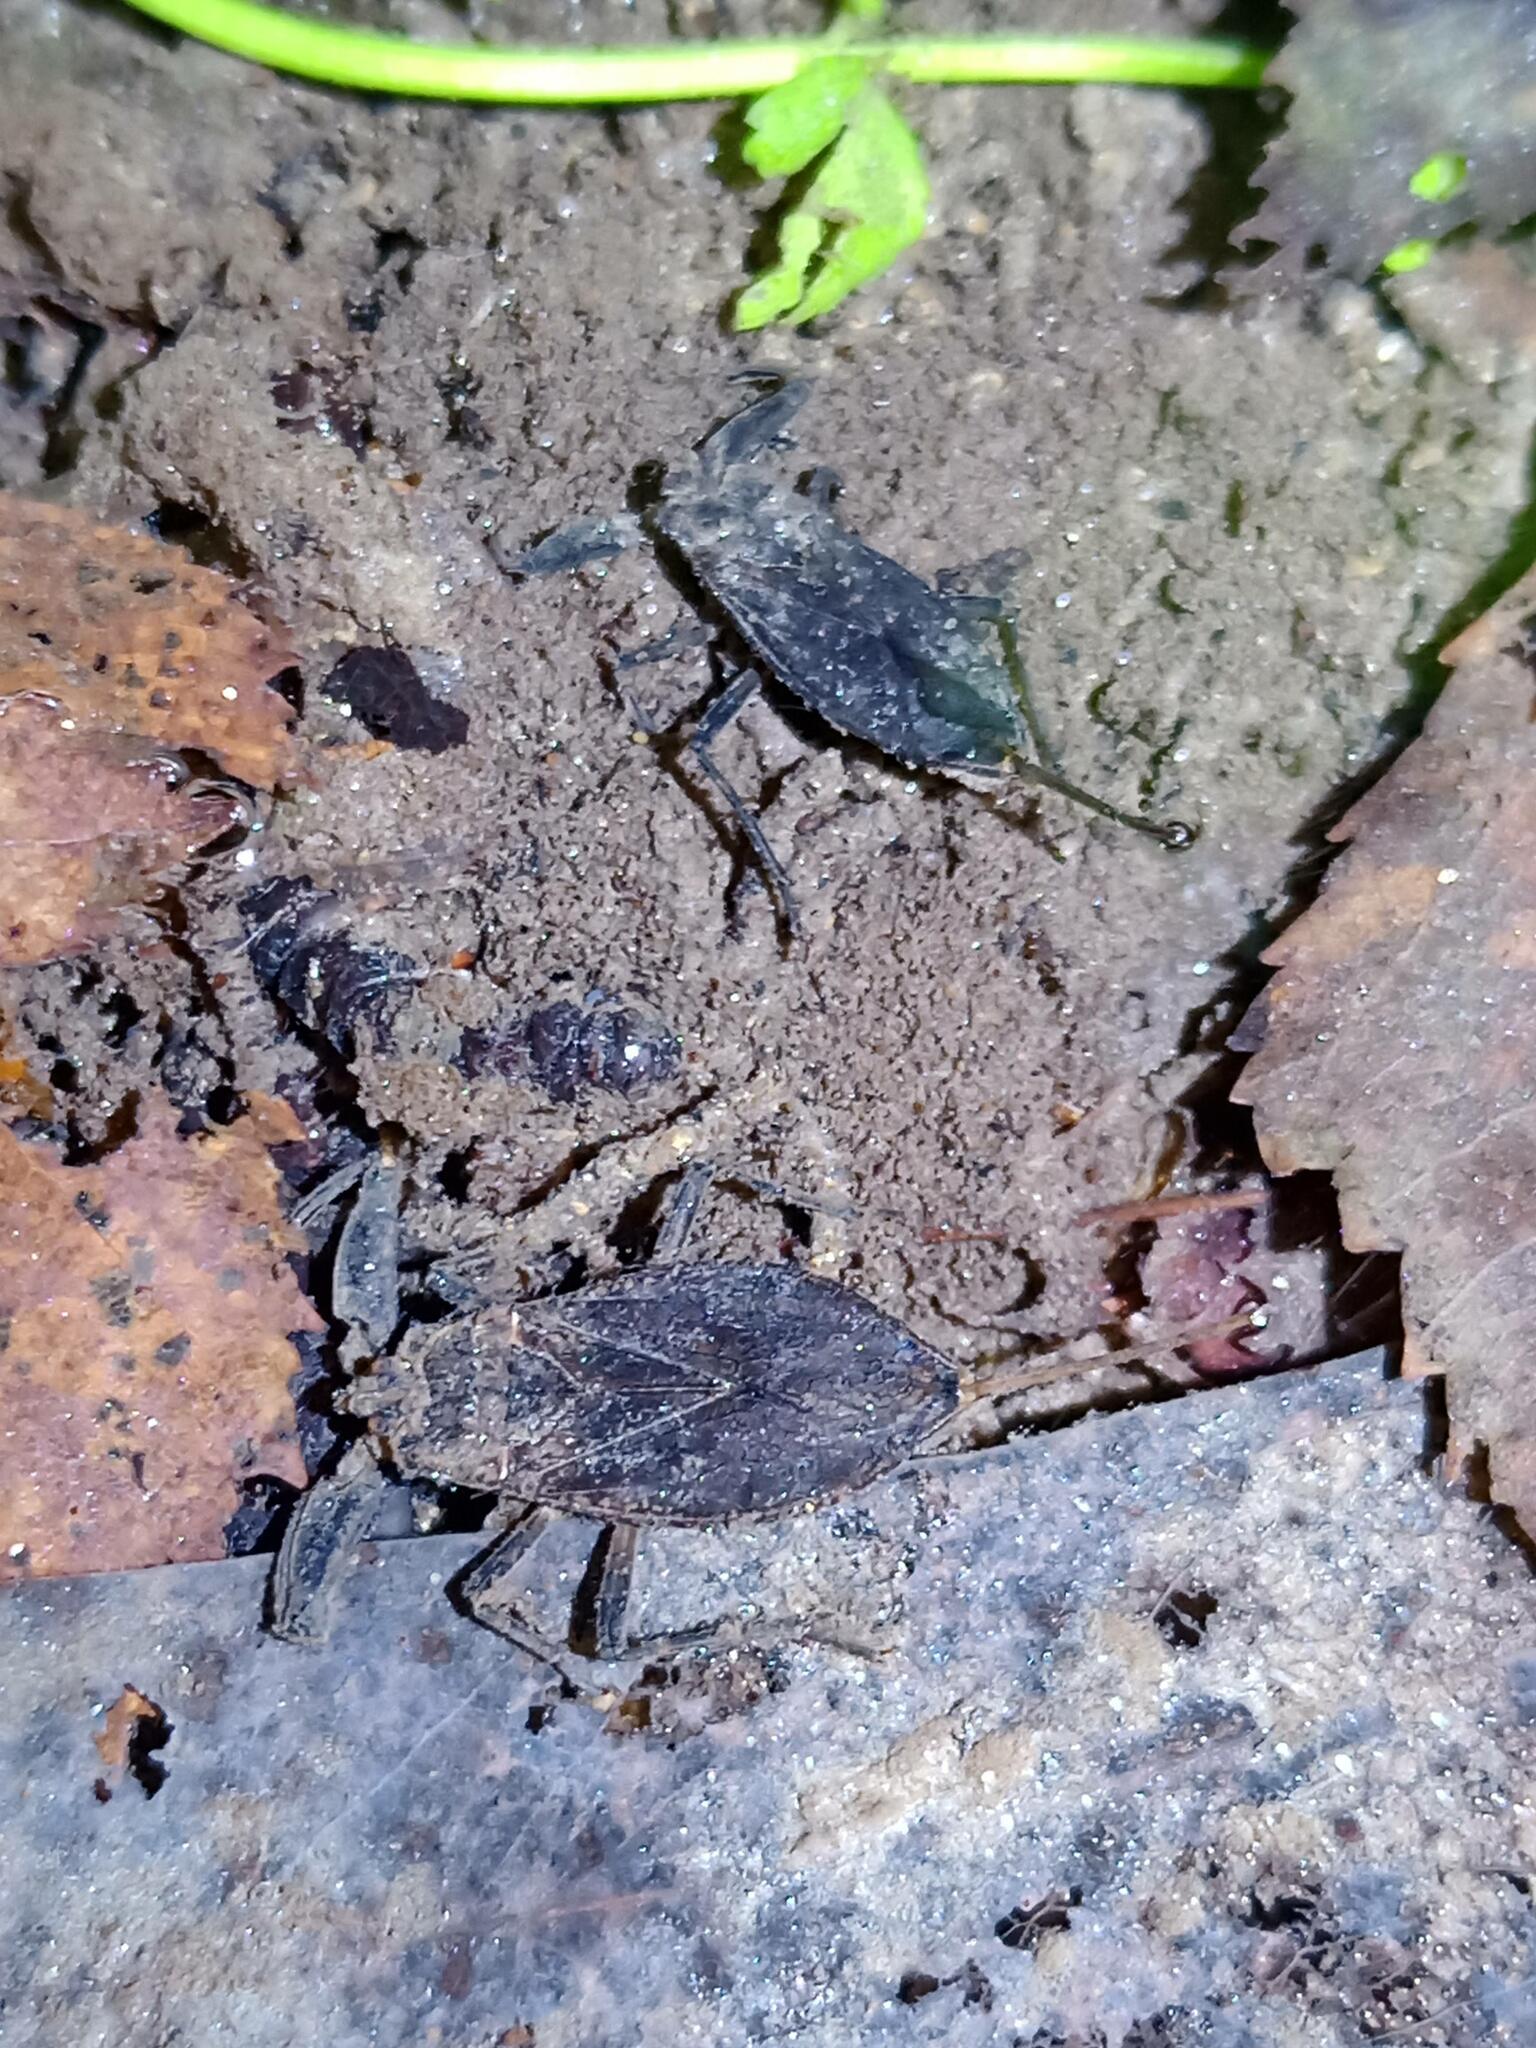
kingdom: Animalia
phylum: Arthropoda
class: Insecta
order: Hemiptera
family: Nepidae
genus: Nepa
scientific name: Nepa cinerea
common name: Water scorpion
